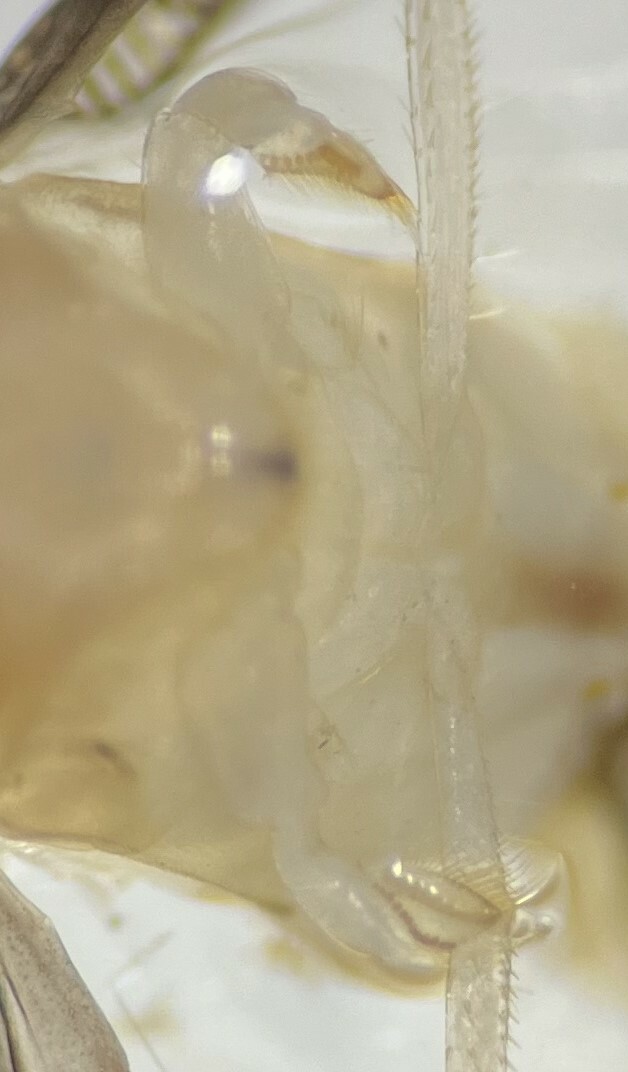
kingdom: Animalia
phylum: Arthropoda
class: Insecta
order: Hemiptera
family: Corixidae
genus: Trichocorixa
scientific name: Trichocorixa sexcincta
